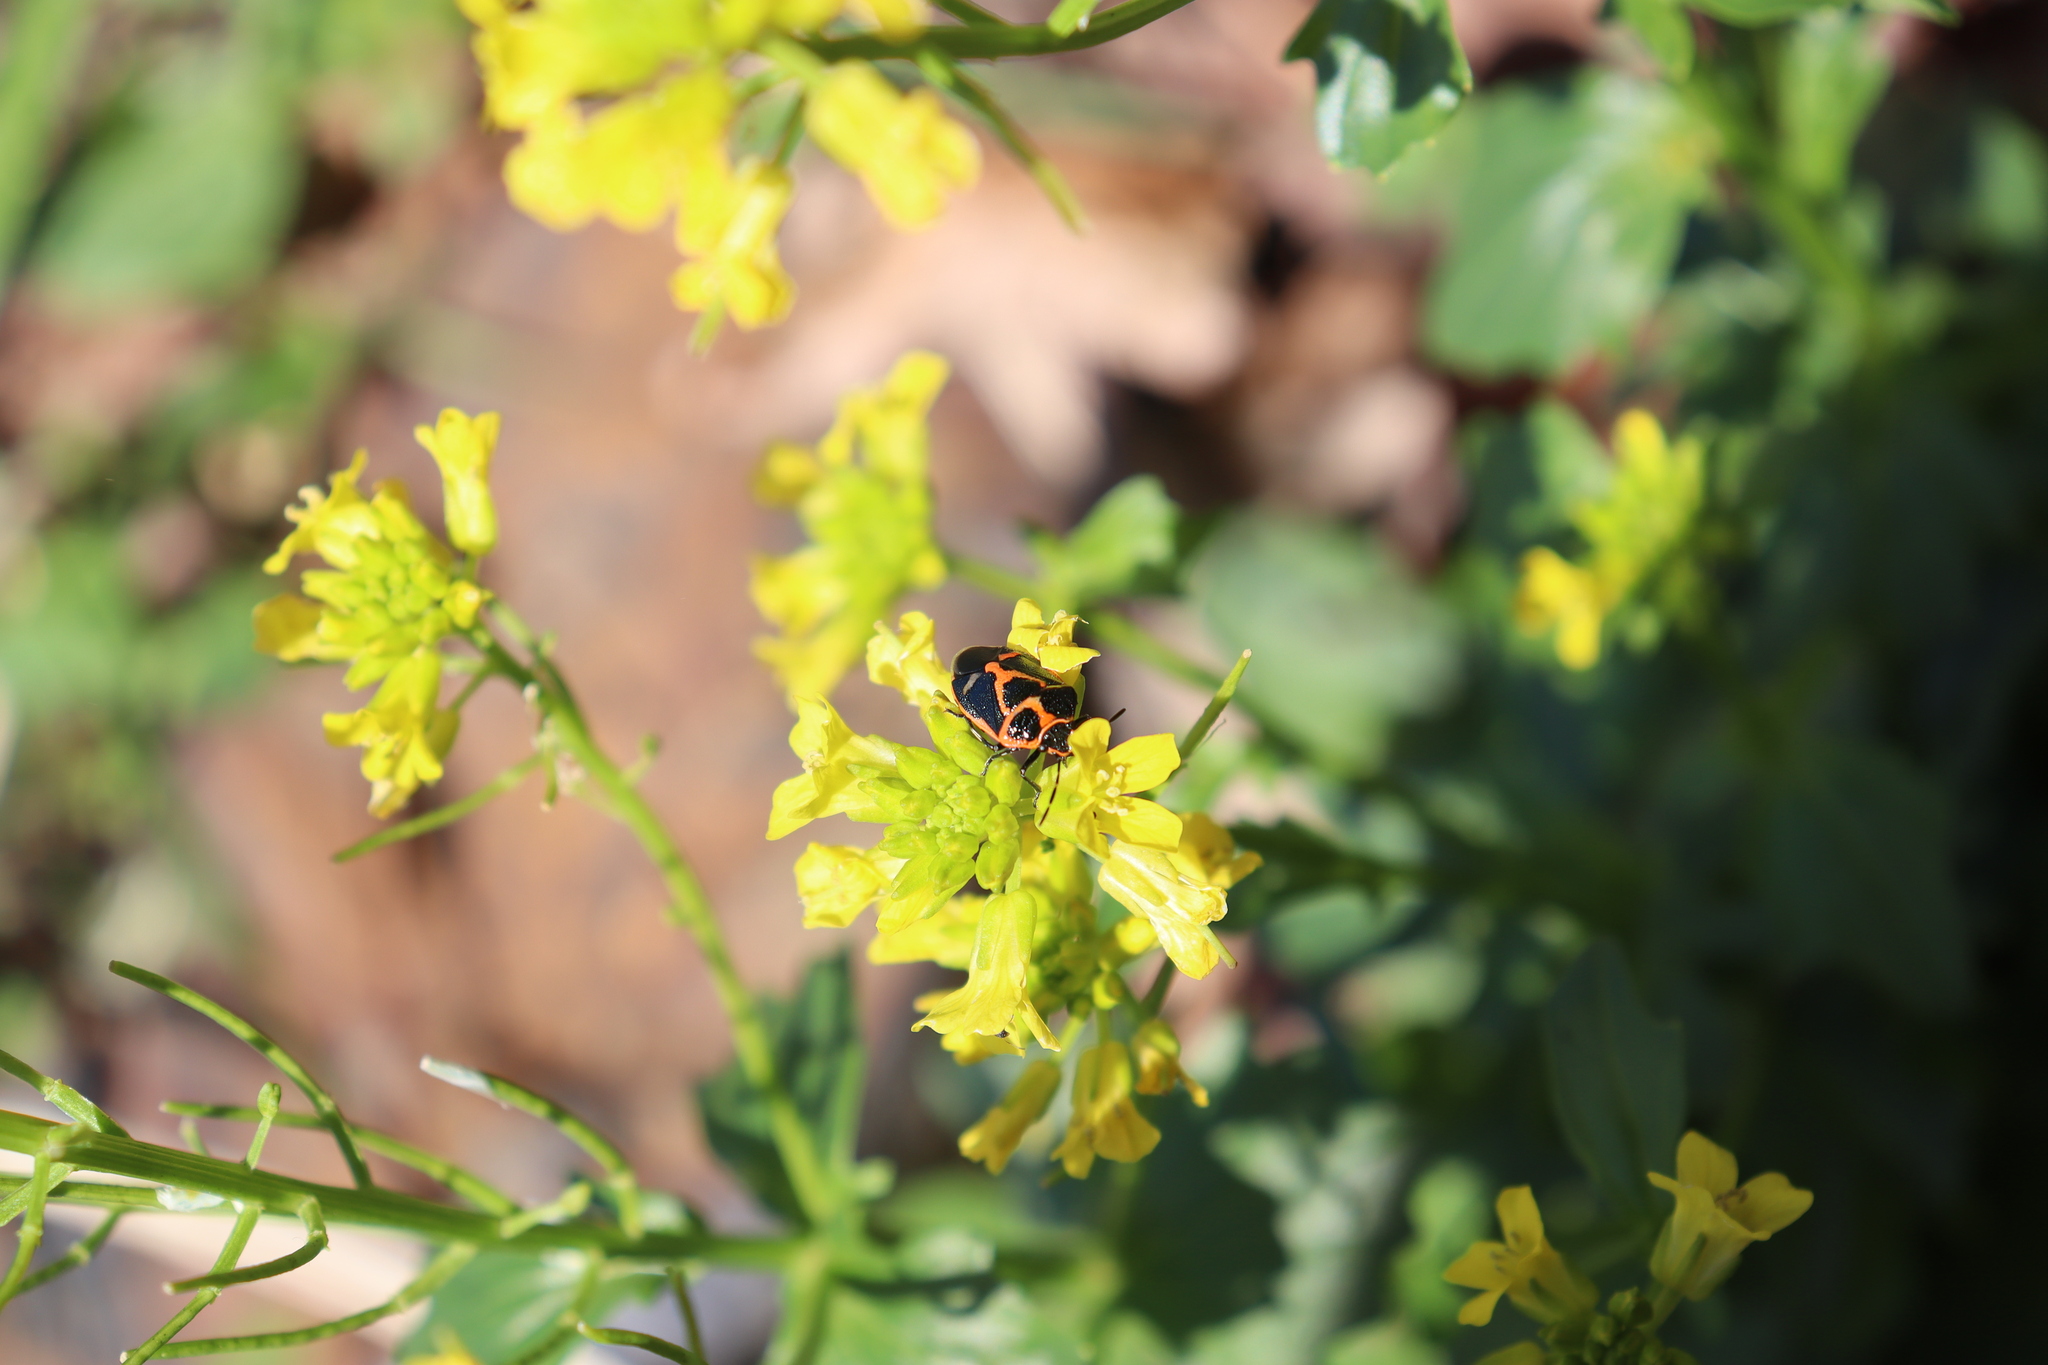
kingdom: Animalia
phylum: Arthropoda
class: Insecta
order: Hemiptera
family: Pentatomidae
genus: Eurydema
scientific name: Eurydema gebleri
